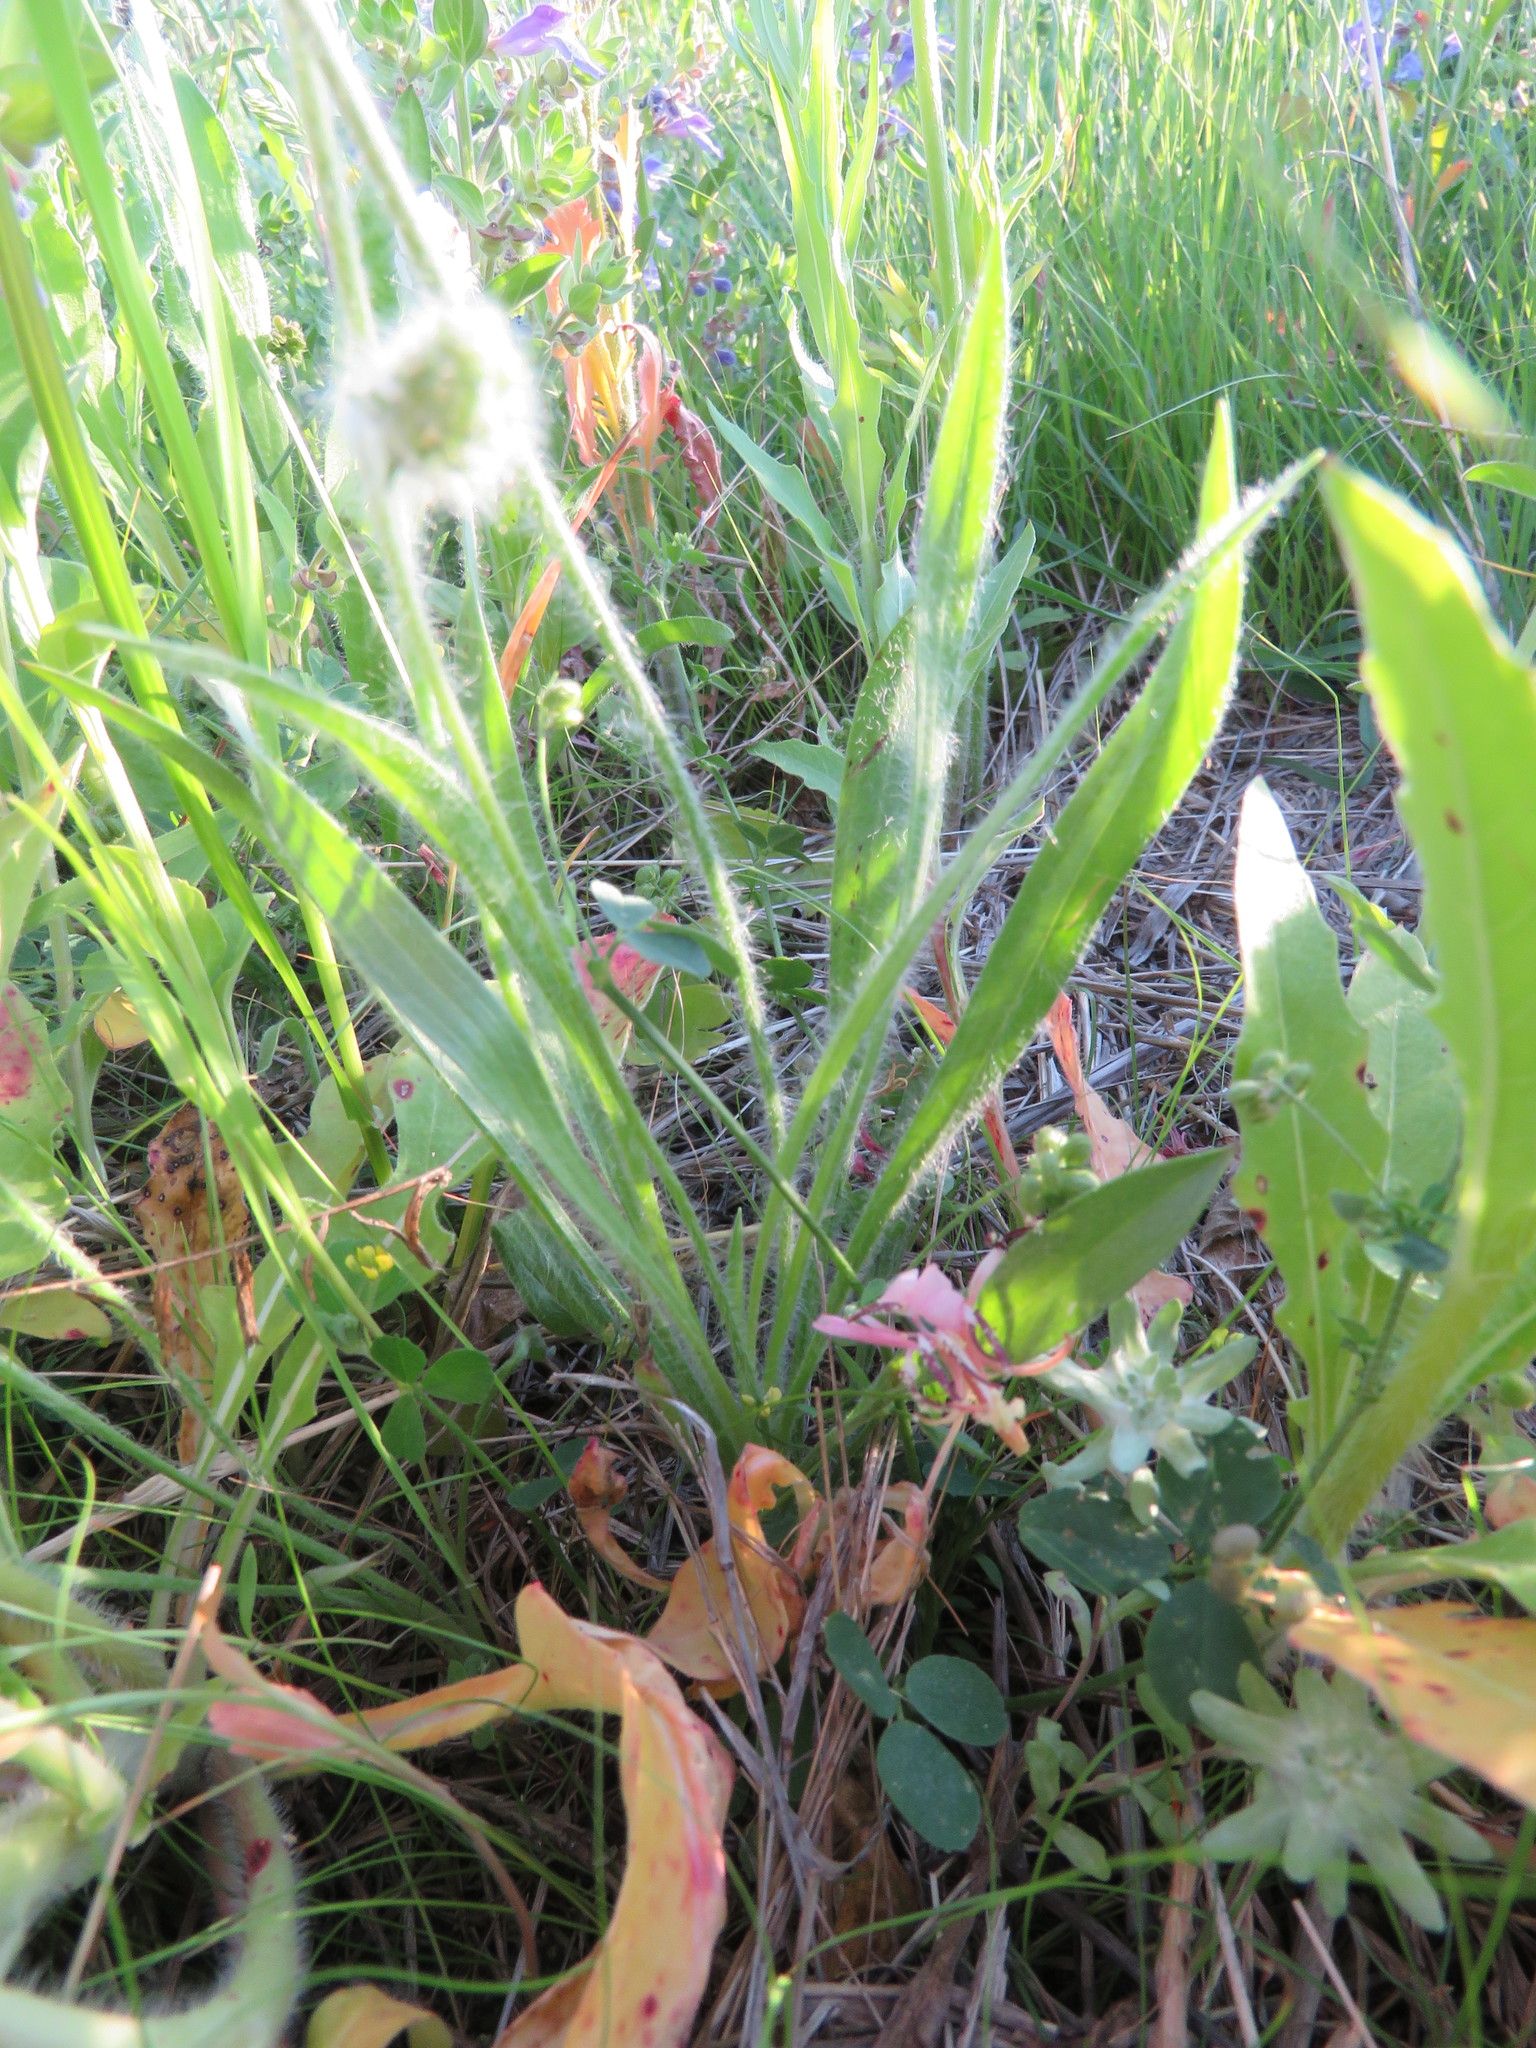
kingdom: Plantae
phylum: Tracheophyta
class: Magnoliopsida
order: Lamiales
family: Plantaginaceae
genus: Plantago
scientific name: Plantago helleri
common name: Heller's plantain
